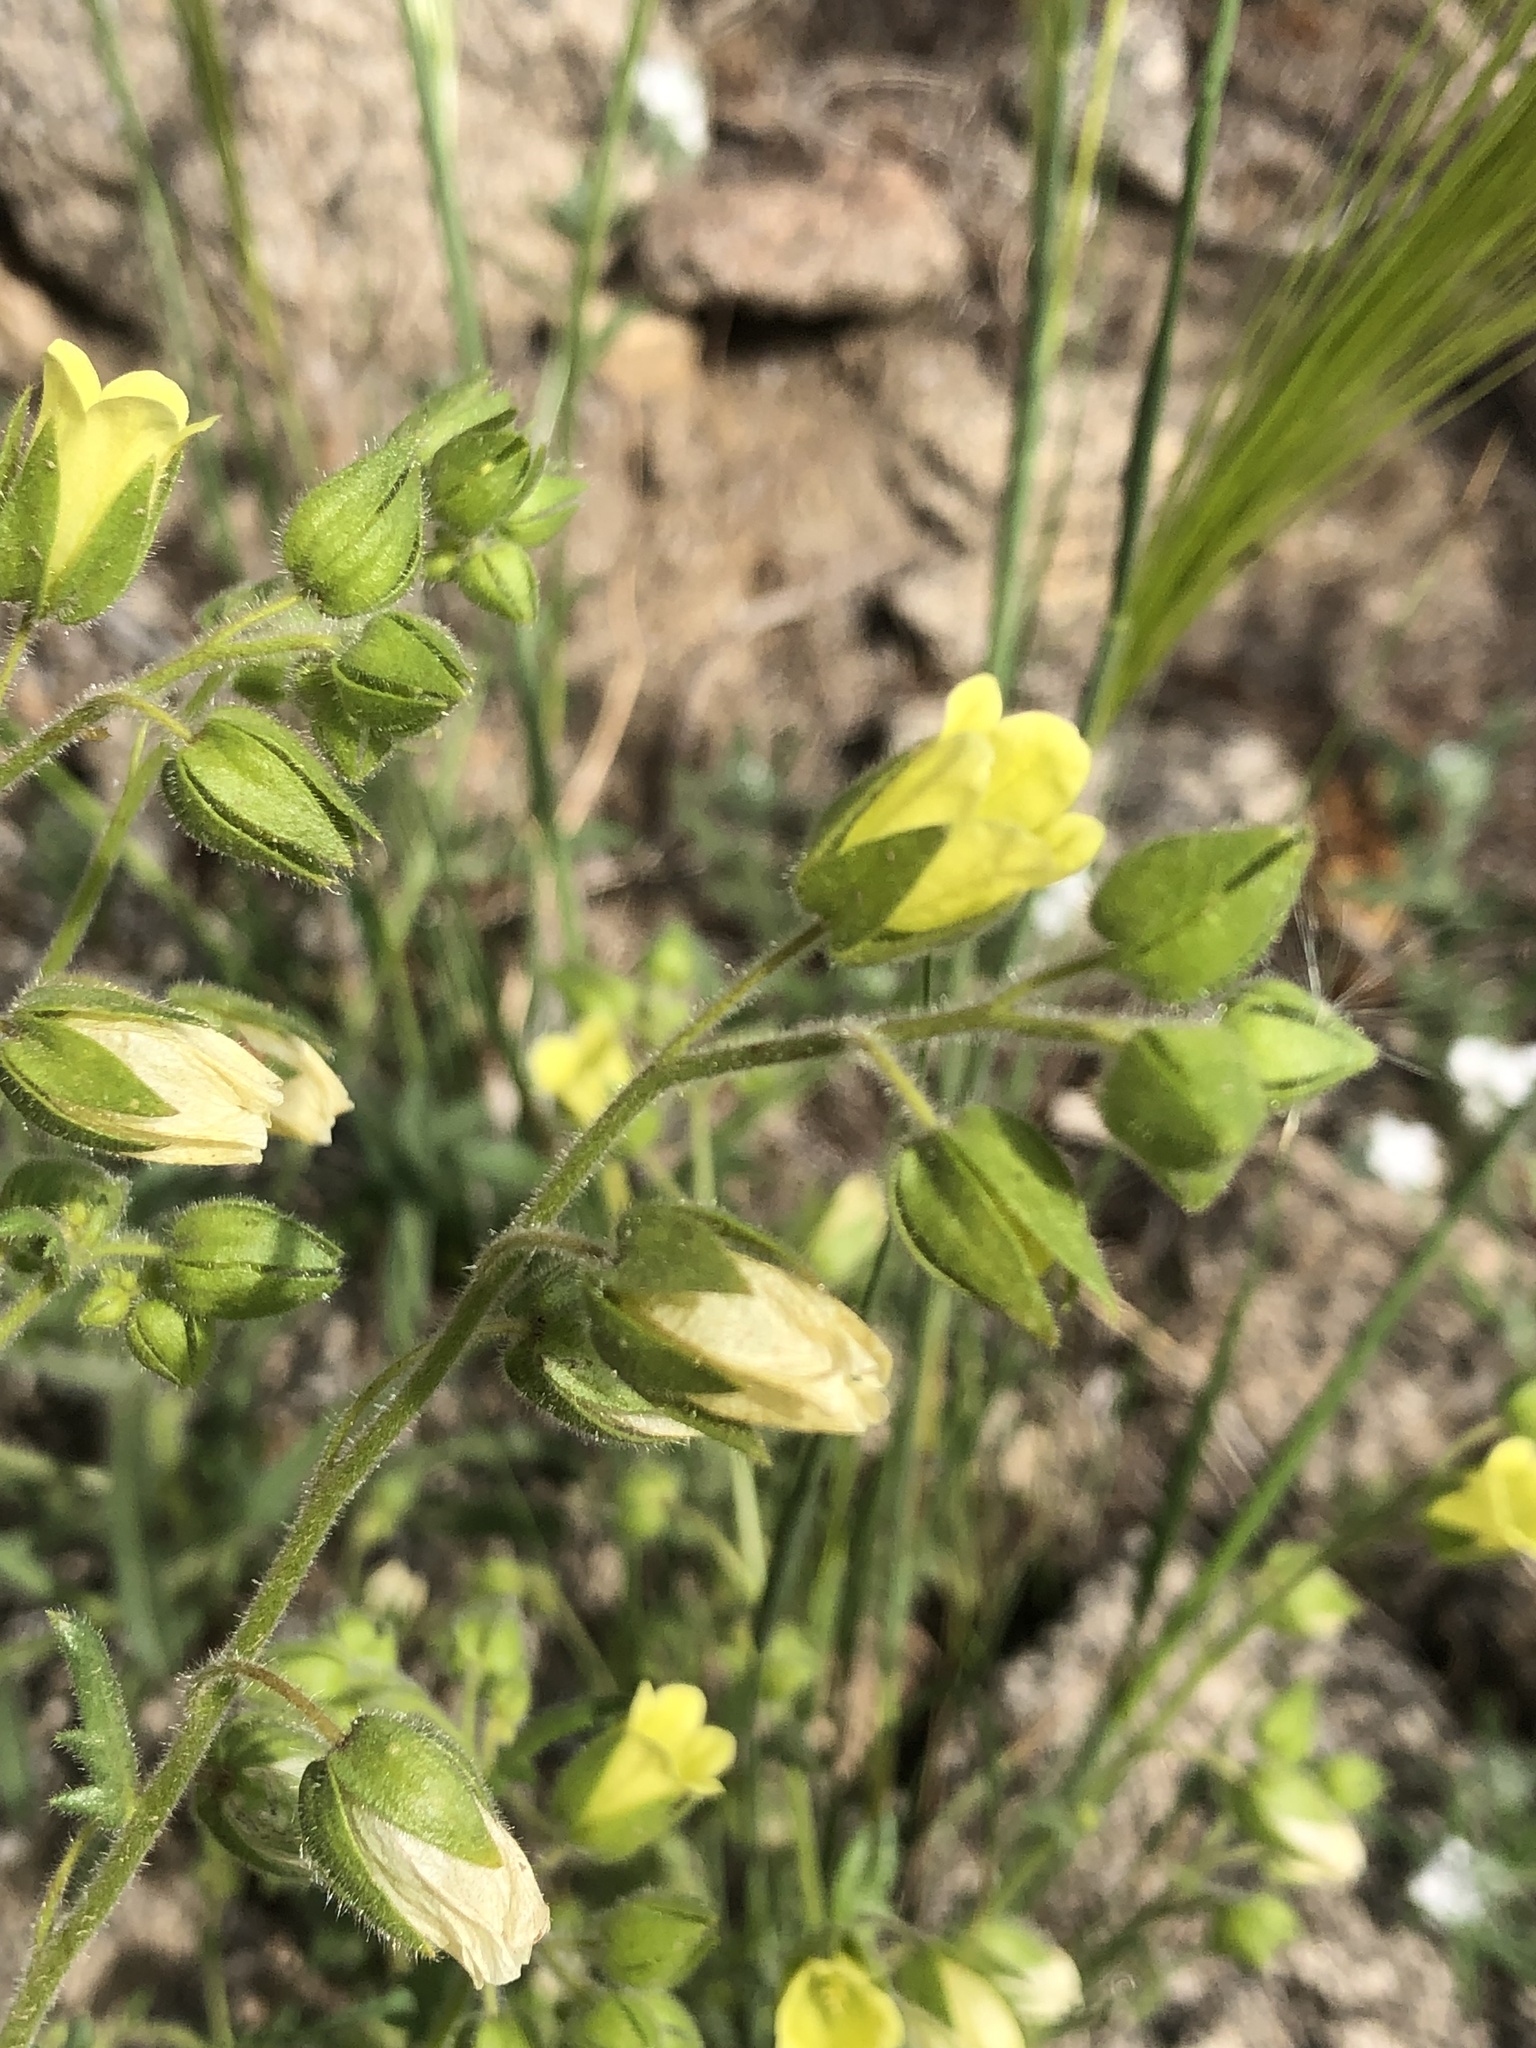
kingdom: Plantae
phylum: Tracheophyta
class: Magnoliopsida
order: Boraginales
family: Hydrophyllaceae
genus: Emmenanthe
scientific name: Emmenanthe penduliflora
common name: Whispering-bells
